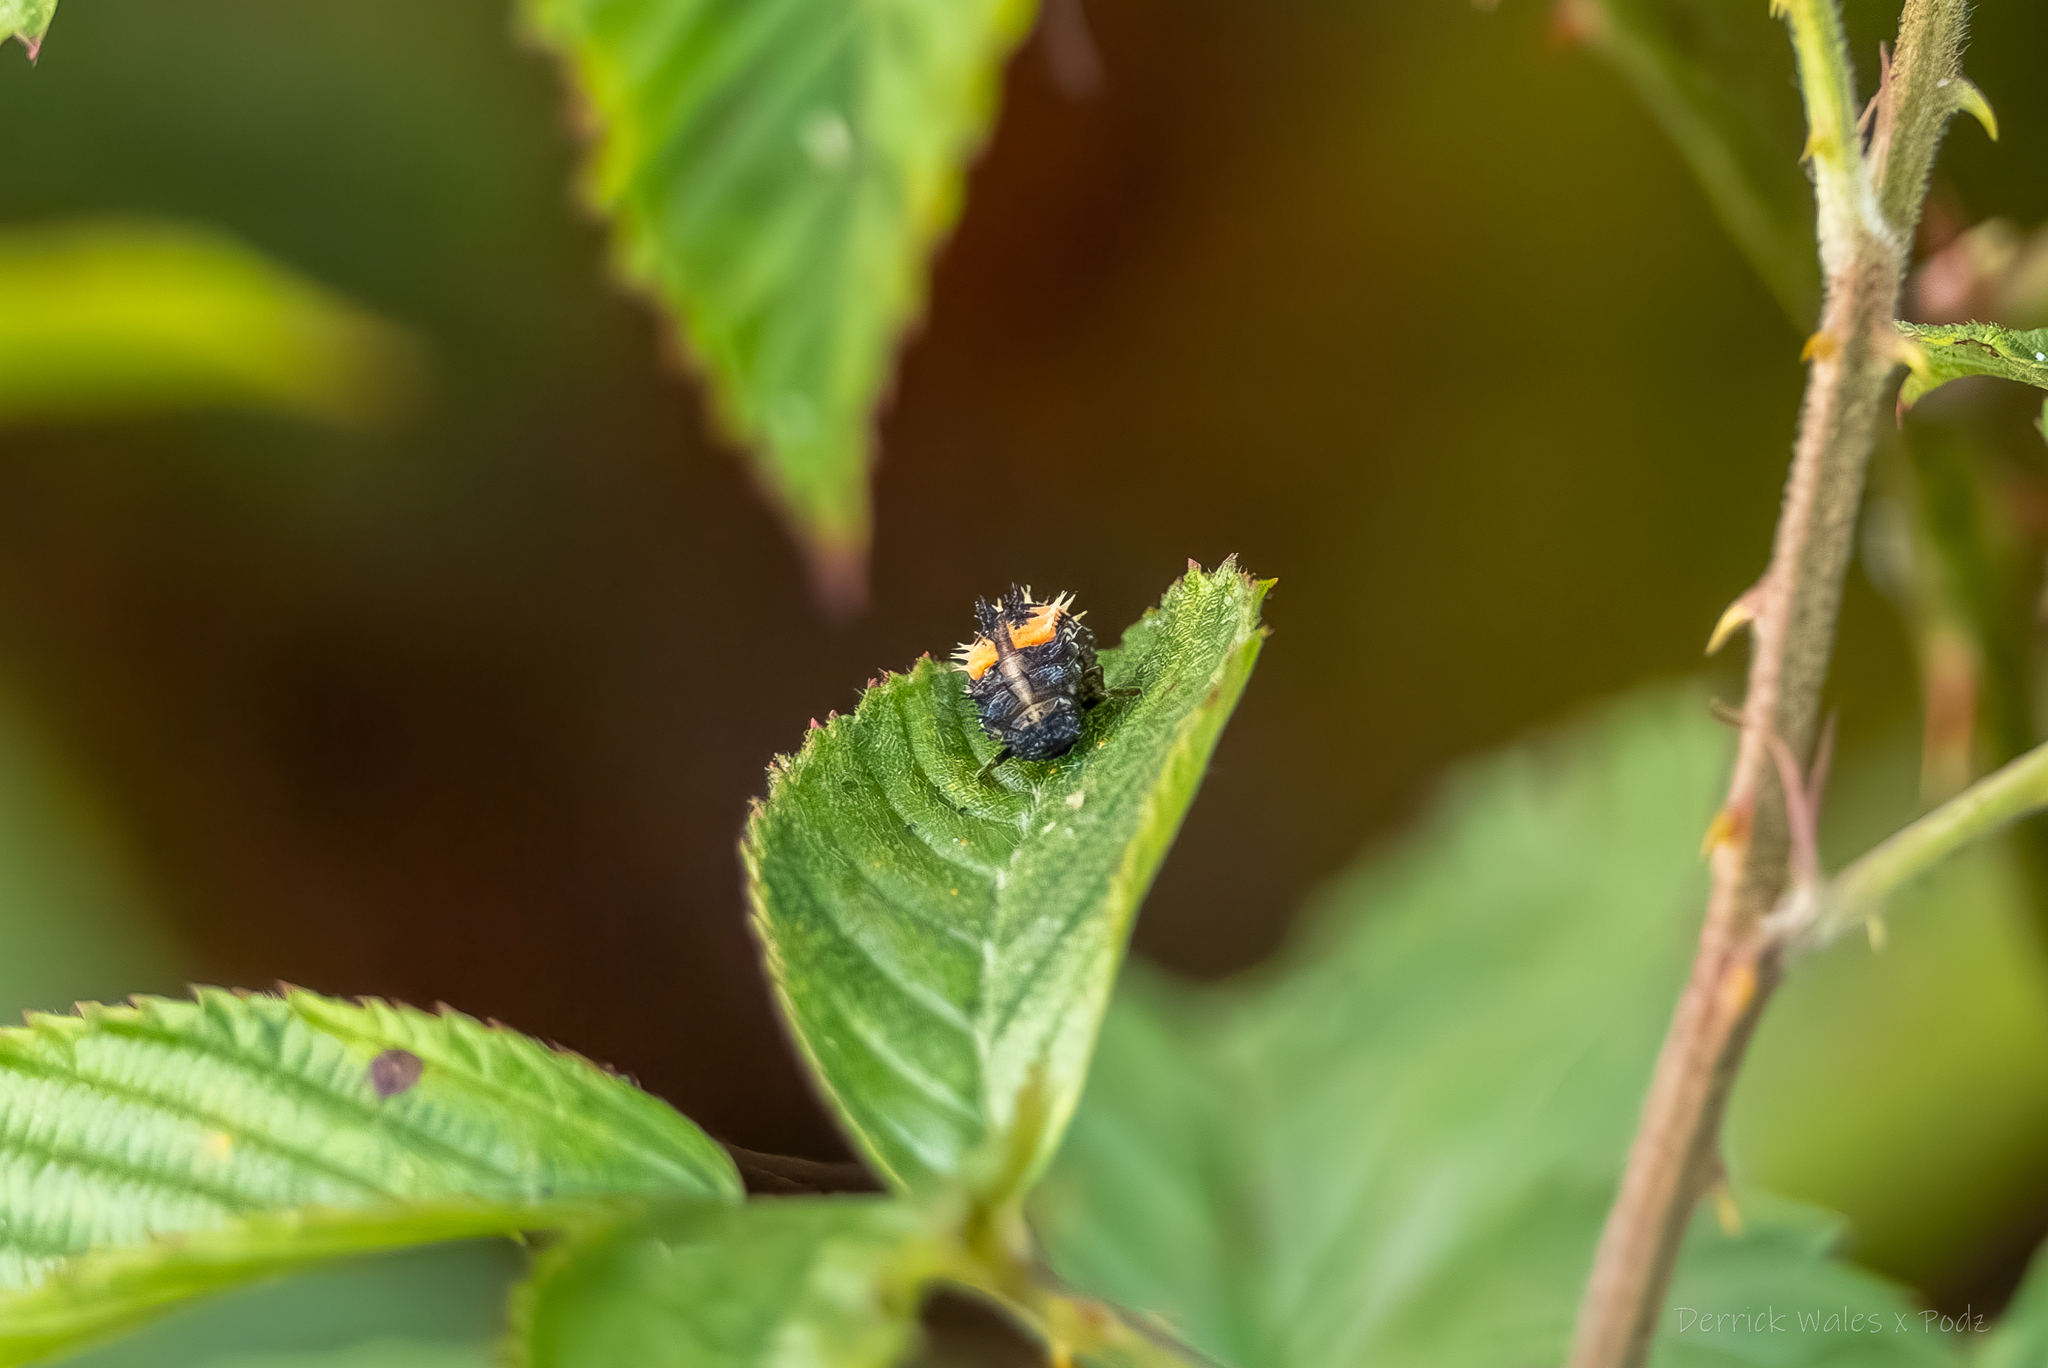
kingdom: Animalia
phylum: Arthropoda
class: Insecta
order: Coleoptera
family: Coccinellidae
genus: Harmonia
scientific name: Harmonia axyridis
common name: Harlequin ladybird
